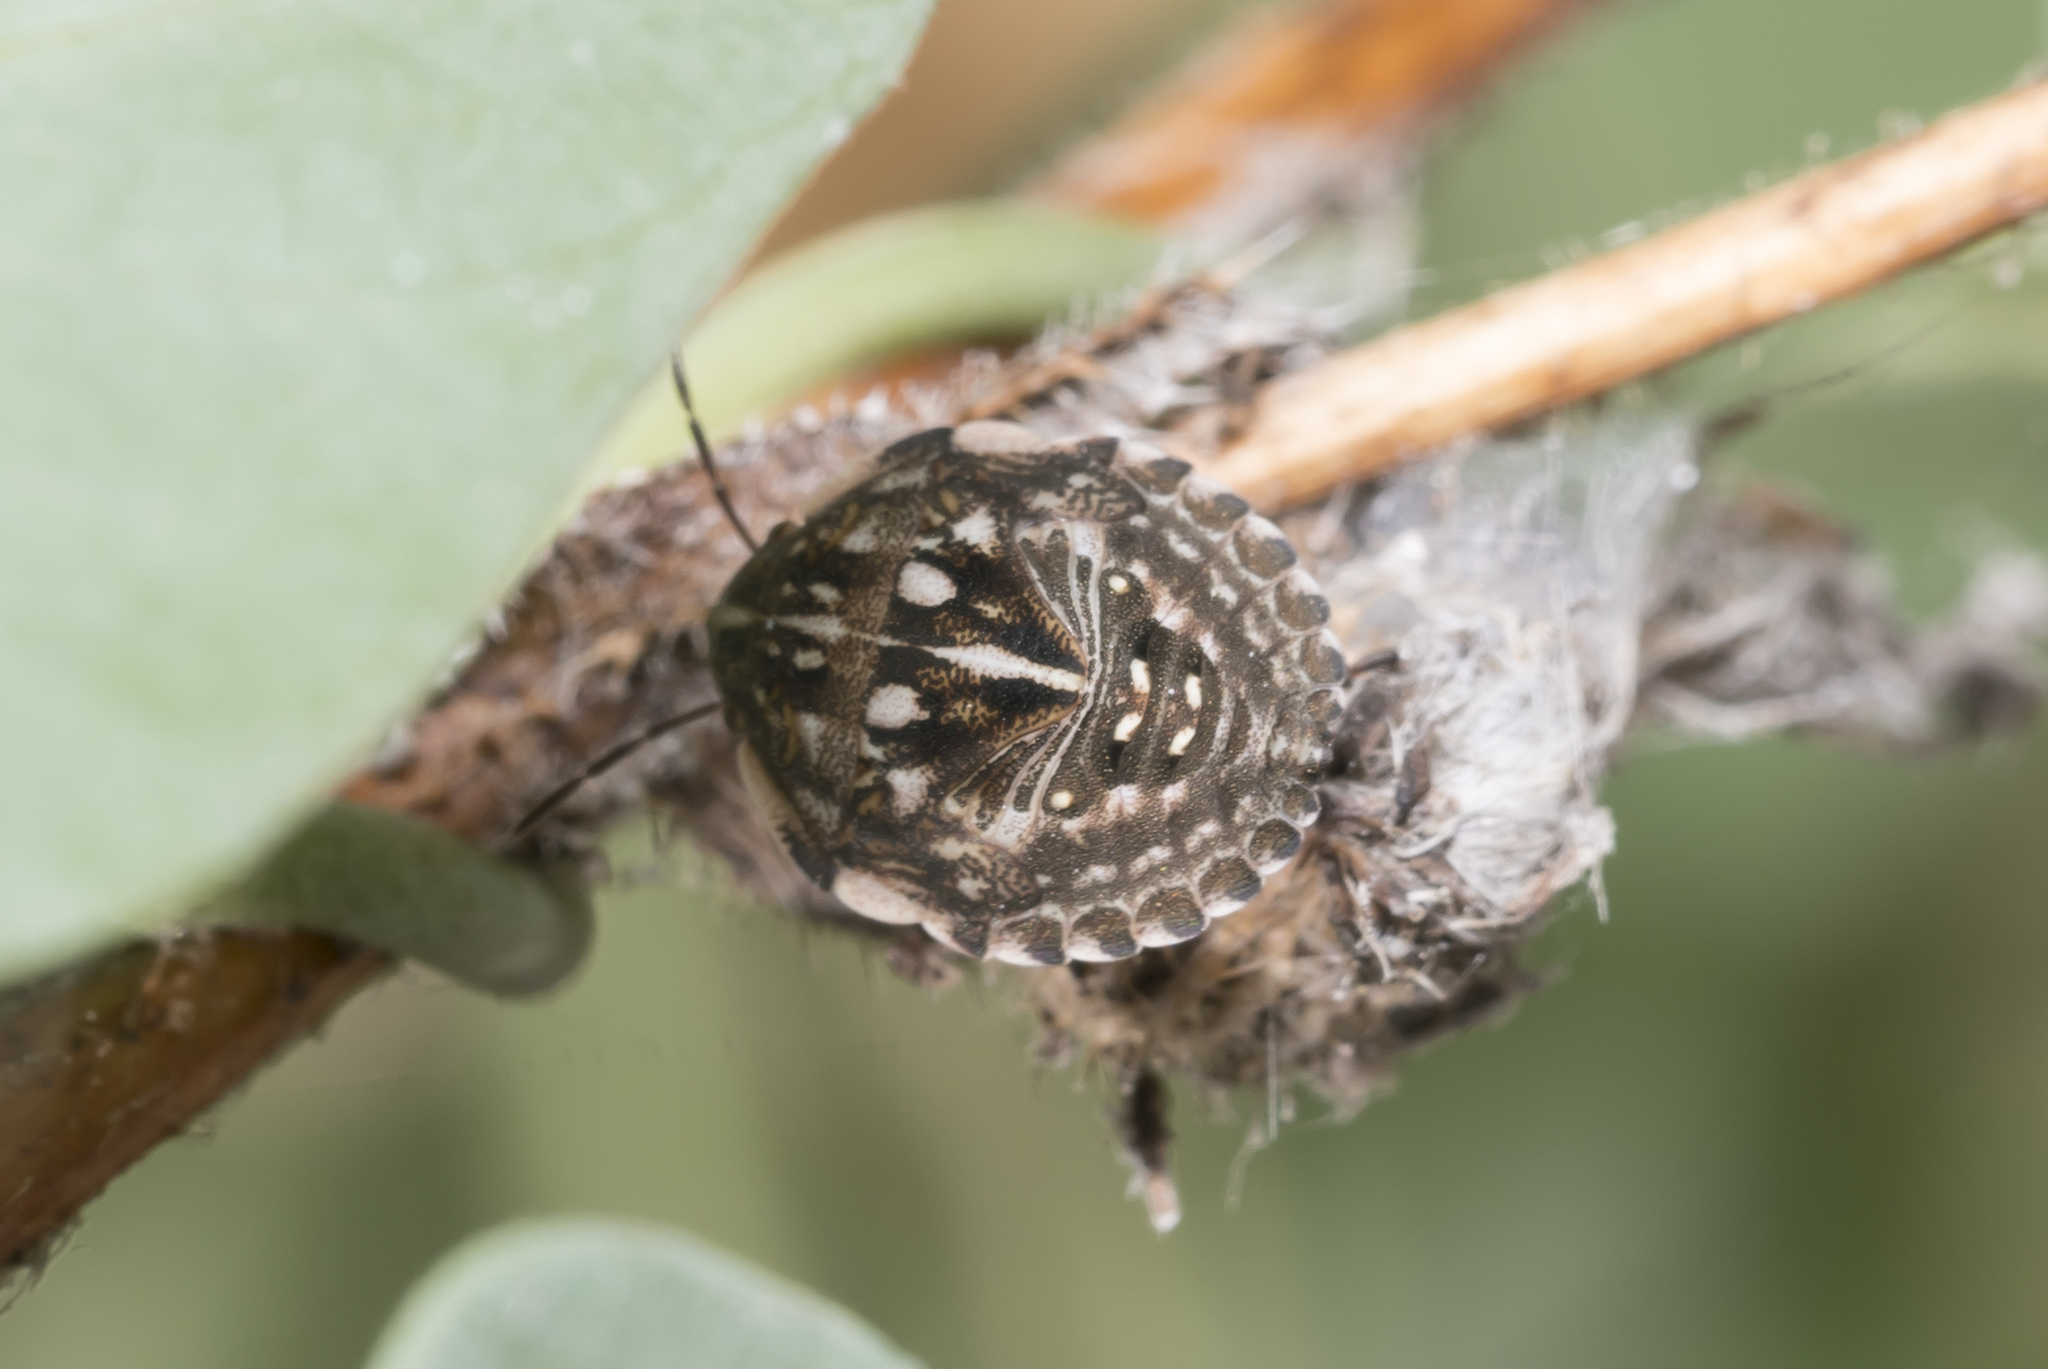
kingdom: Animalia
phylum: Arthropoda
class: Insecta
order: Hemiptera
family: Scutelleridae
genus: Odontotarsus
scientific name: Odontotarsus robustus
